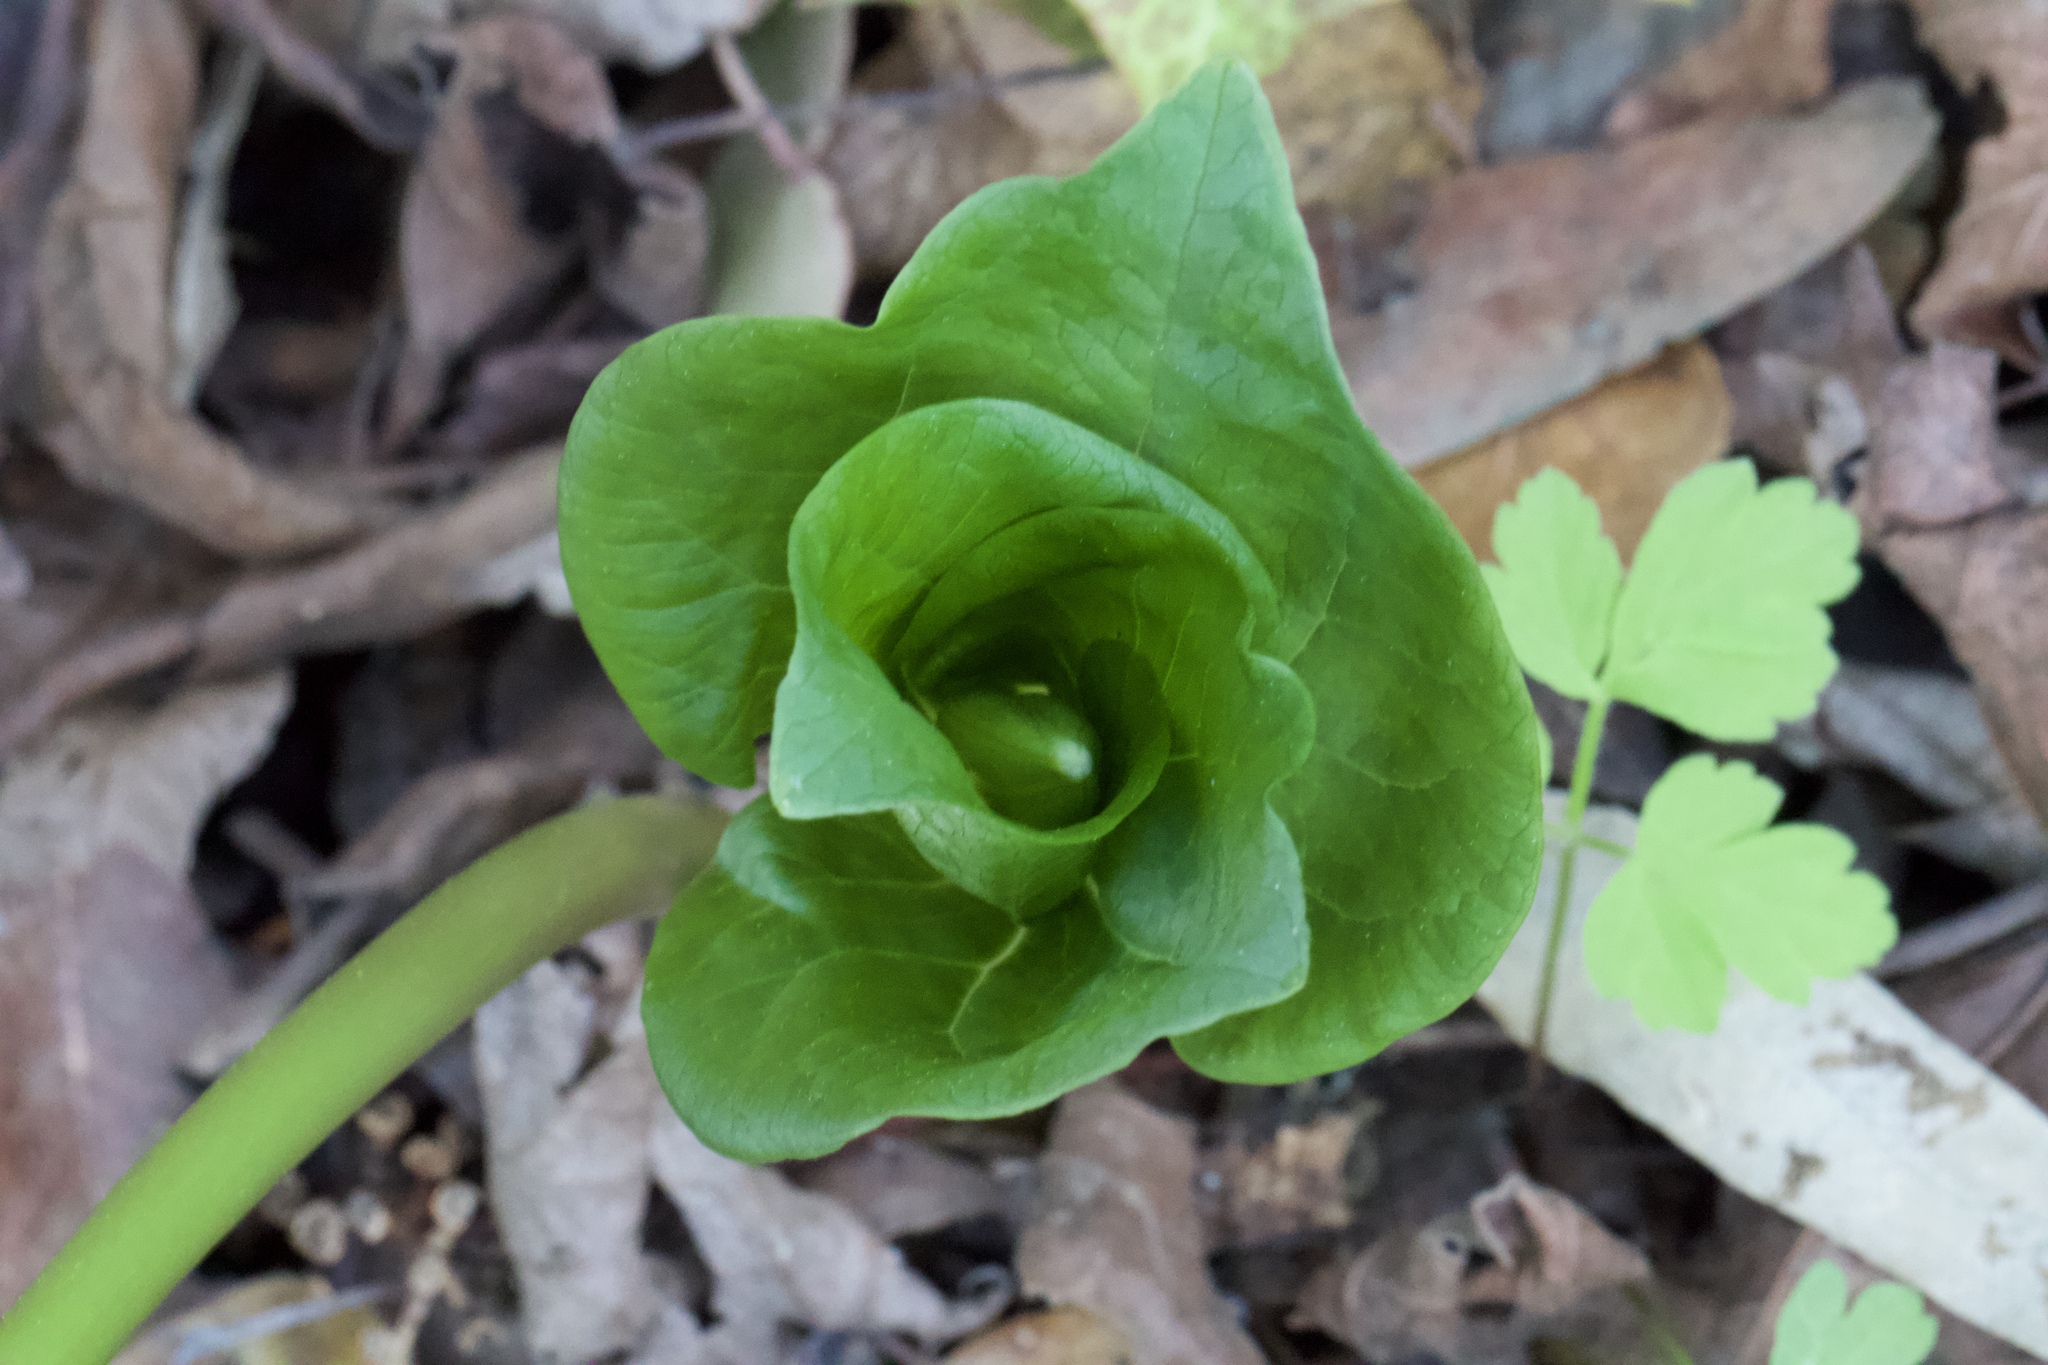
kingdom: Plantae
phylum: Tracheophyta
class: Liliopsida
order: Liliales
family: Melanthiaceae
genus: Trillium
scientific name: Trillium chloropetalum
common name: Giant trillium
